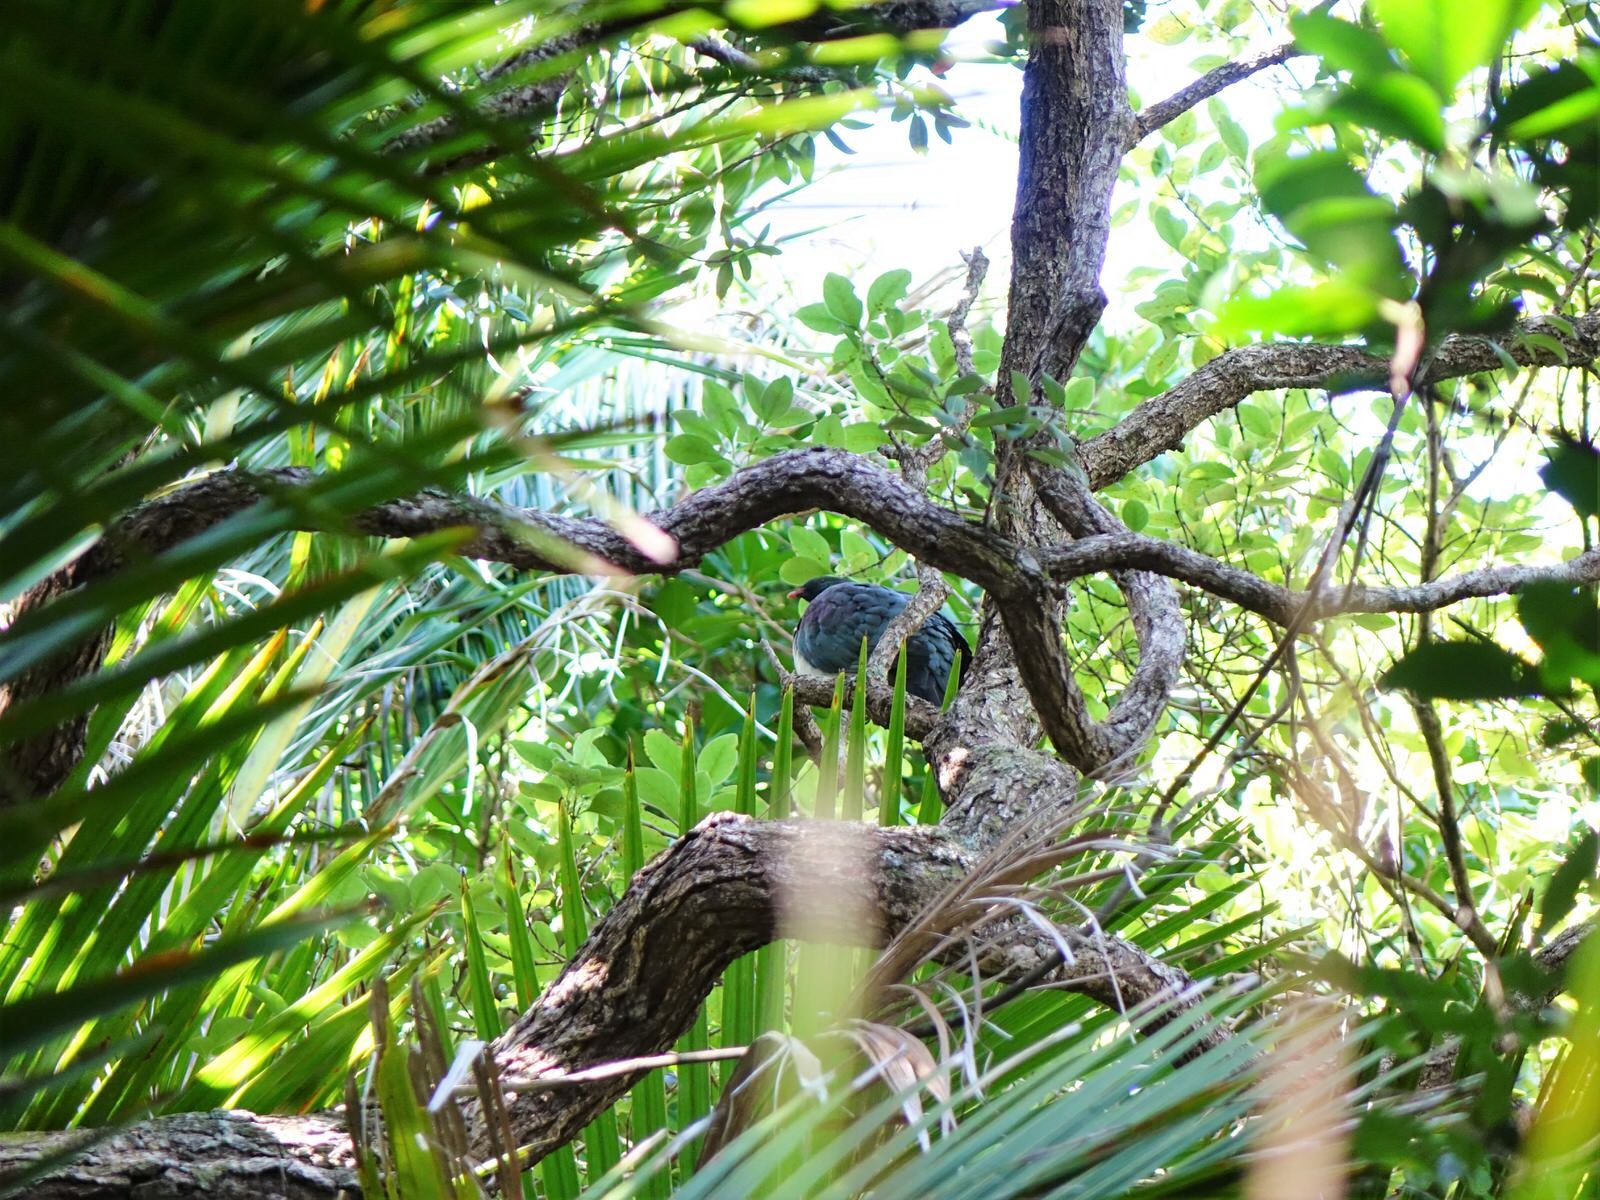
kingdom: Animalia
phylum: Chordata
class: Aves
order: Columbiformes
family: Columbidae
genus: Hemiphaga
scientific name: Hemiphaga novaeseelandiae
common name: New zealand pigeon
